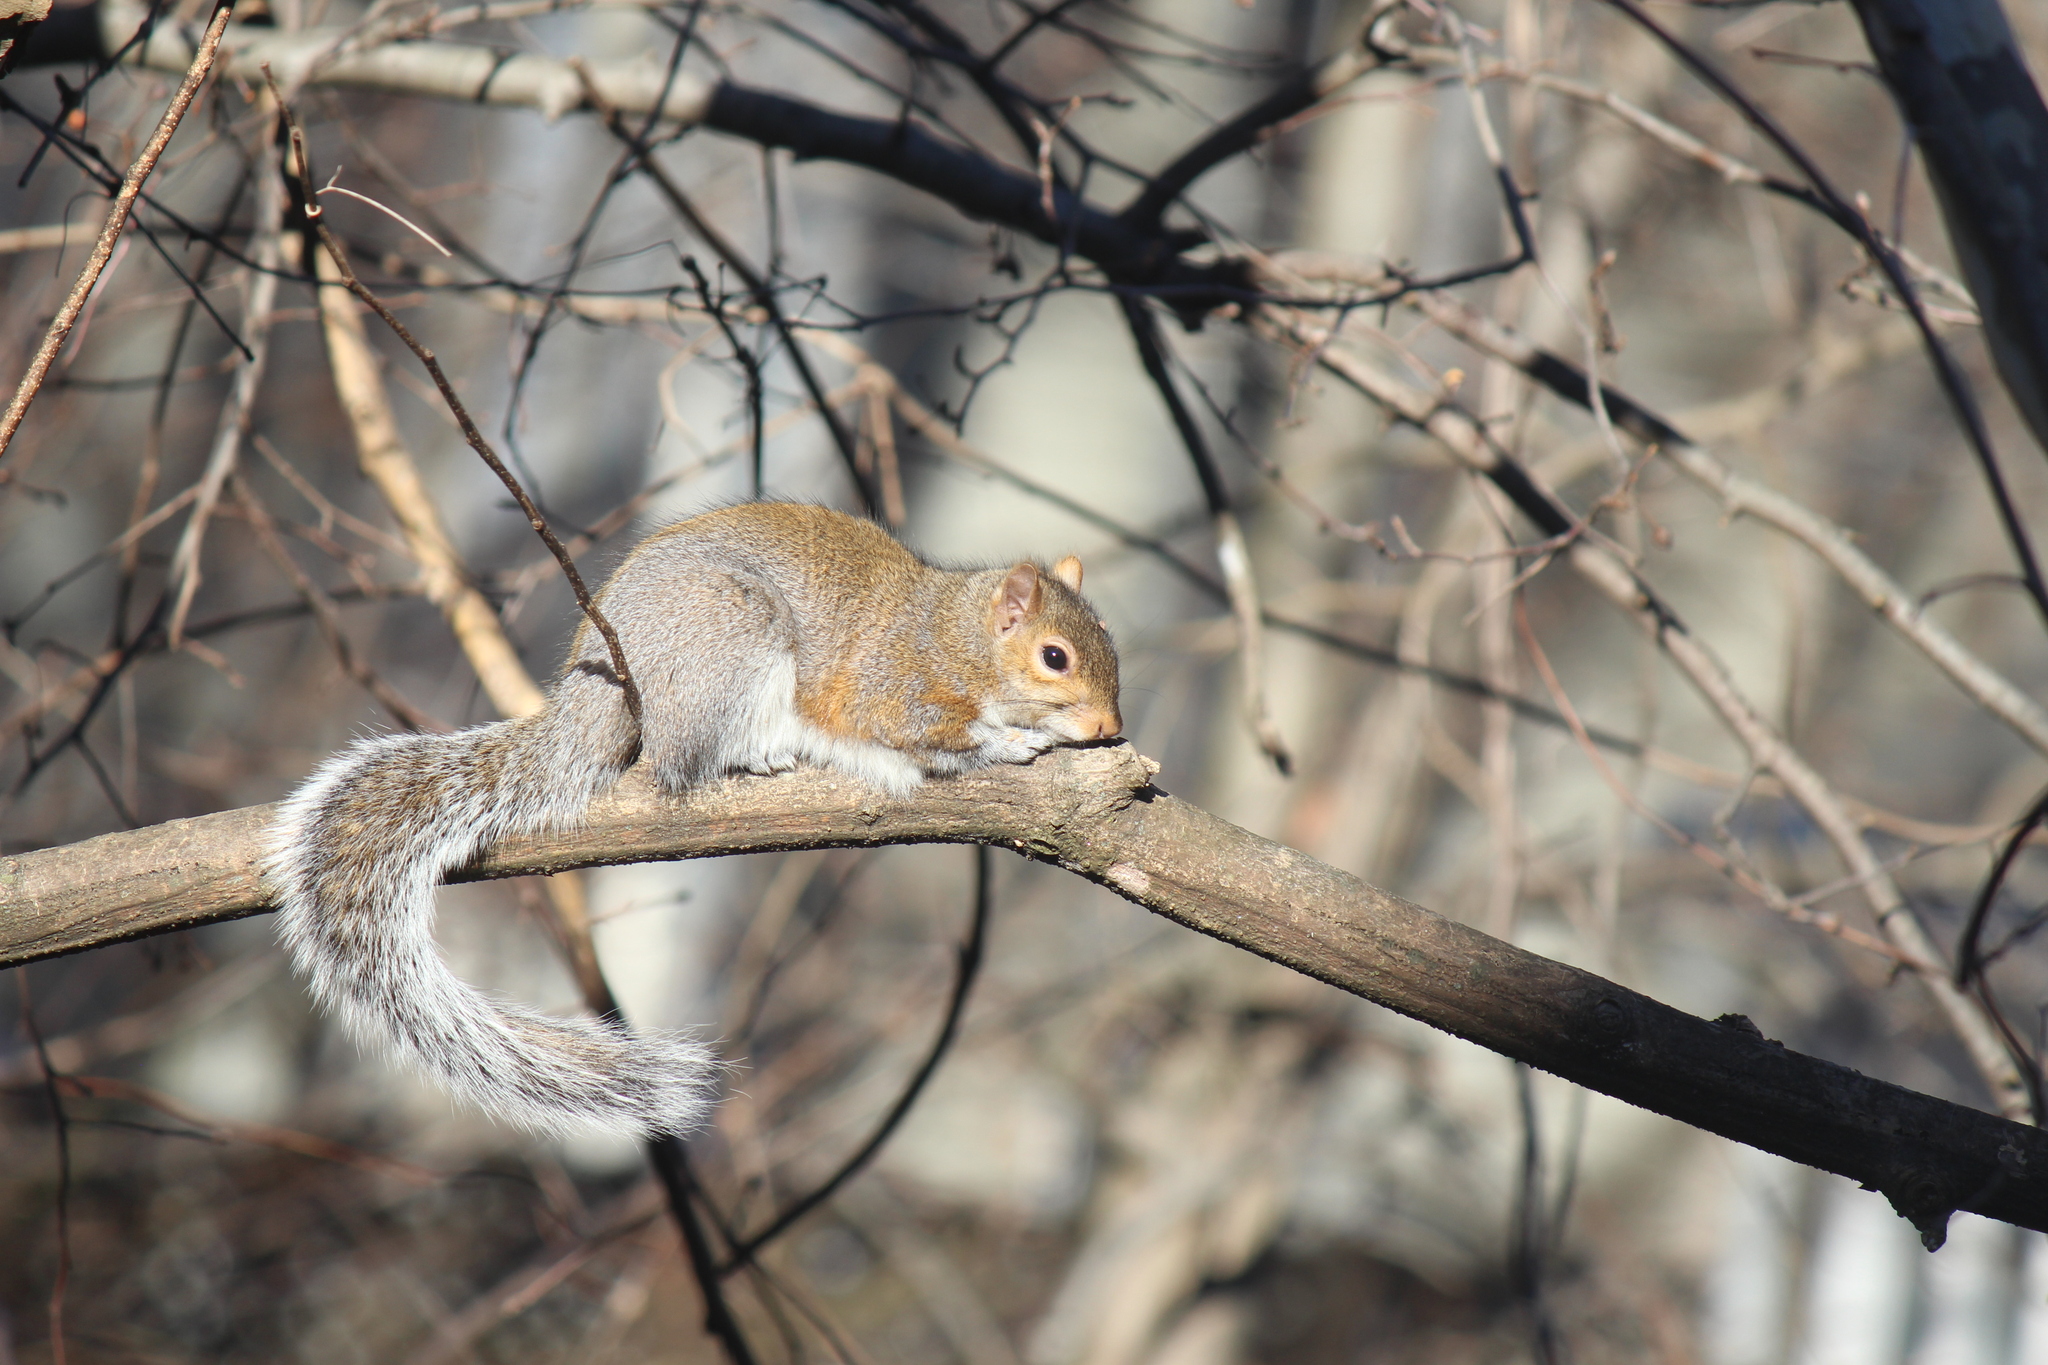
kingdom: Animalia
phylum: Chordata
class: Mammalia
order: Rodentia
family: Sciuridae
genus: Sciurus
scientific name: Sciurus carolinensis
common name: Eastern gray squirrel
